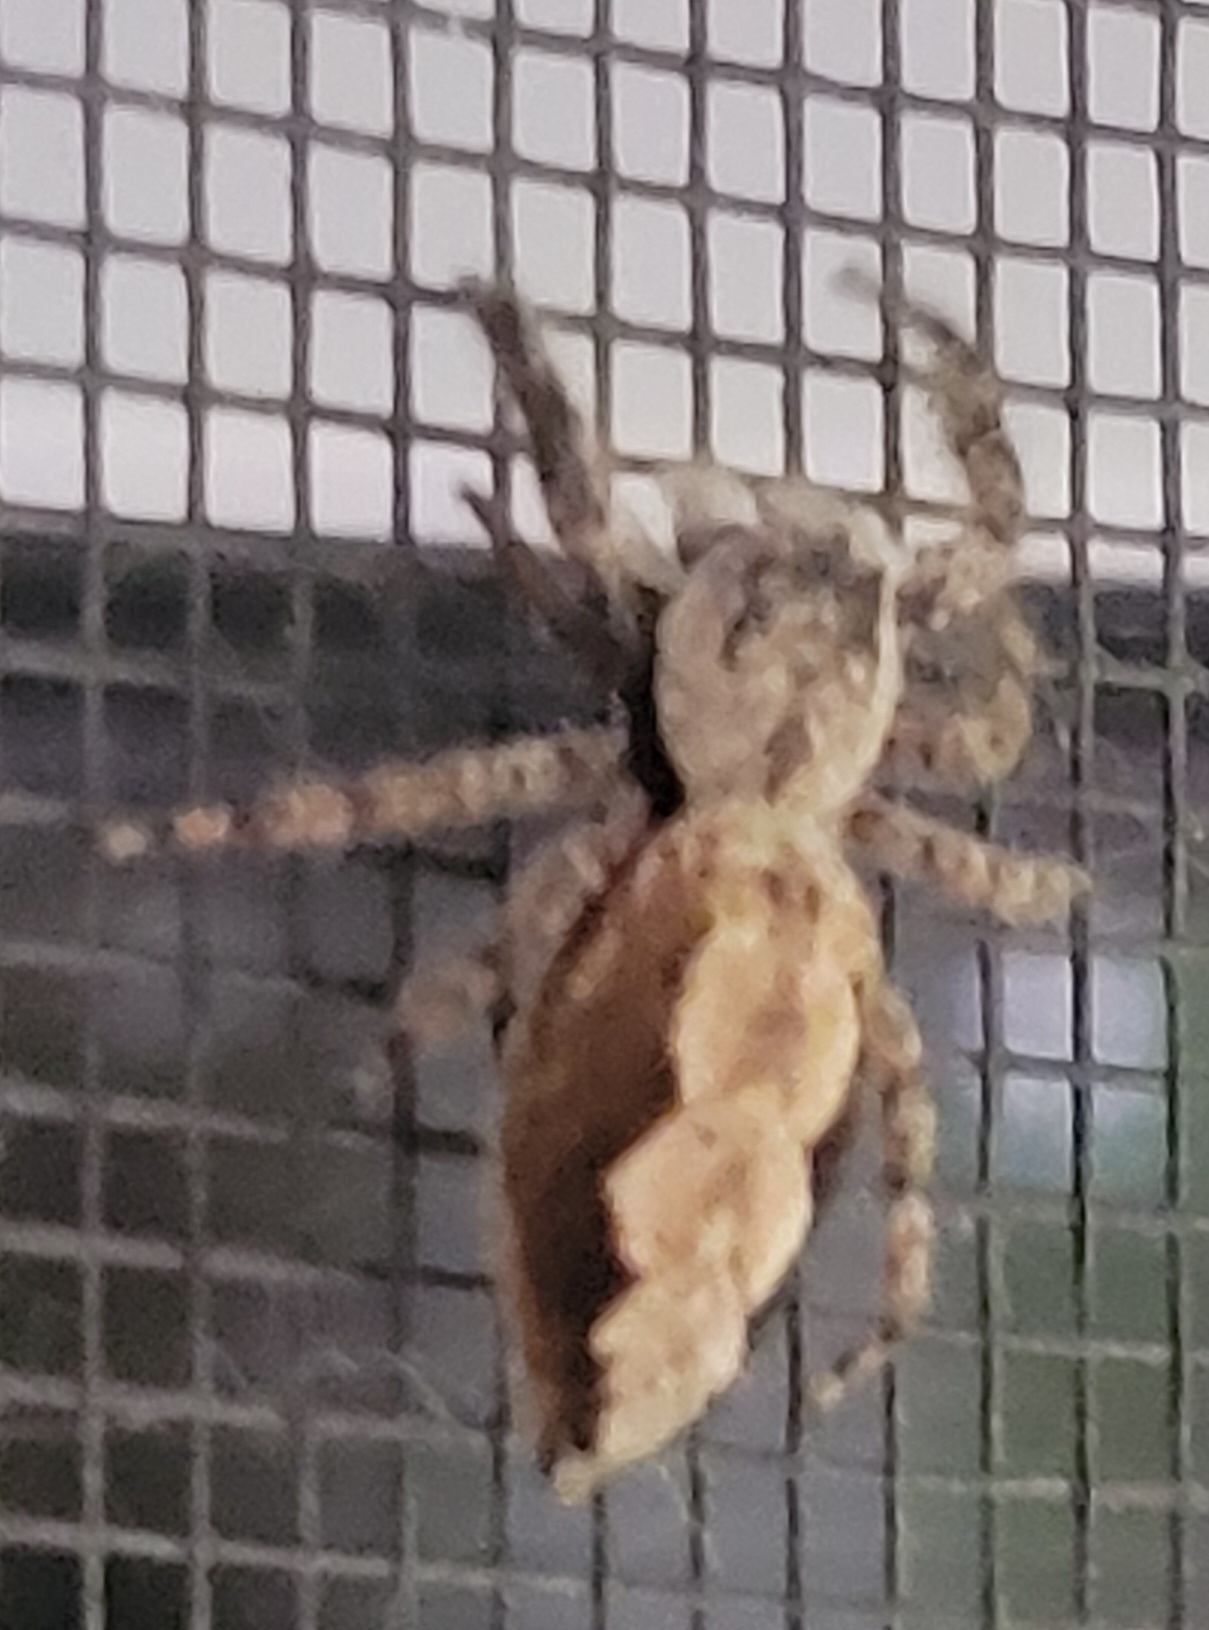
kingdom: Animalia
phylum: Arthropoda
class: Arachnida
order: Araneae
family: Salticidae
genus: Platycryptus
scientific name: Platycryptus undatus
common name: Tan jumping spider
